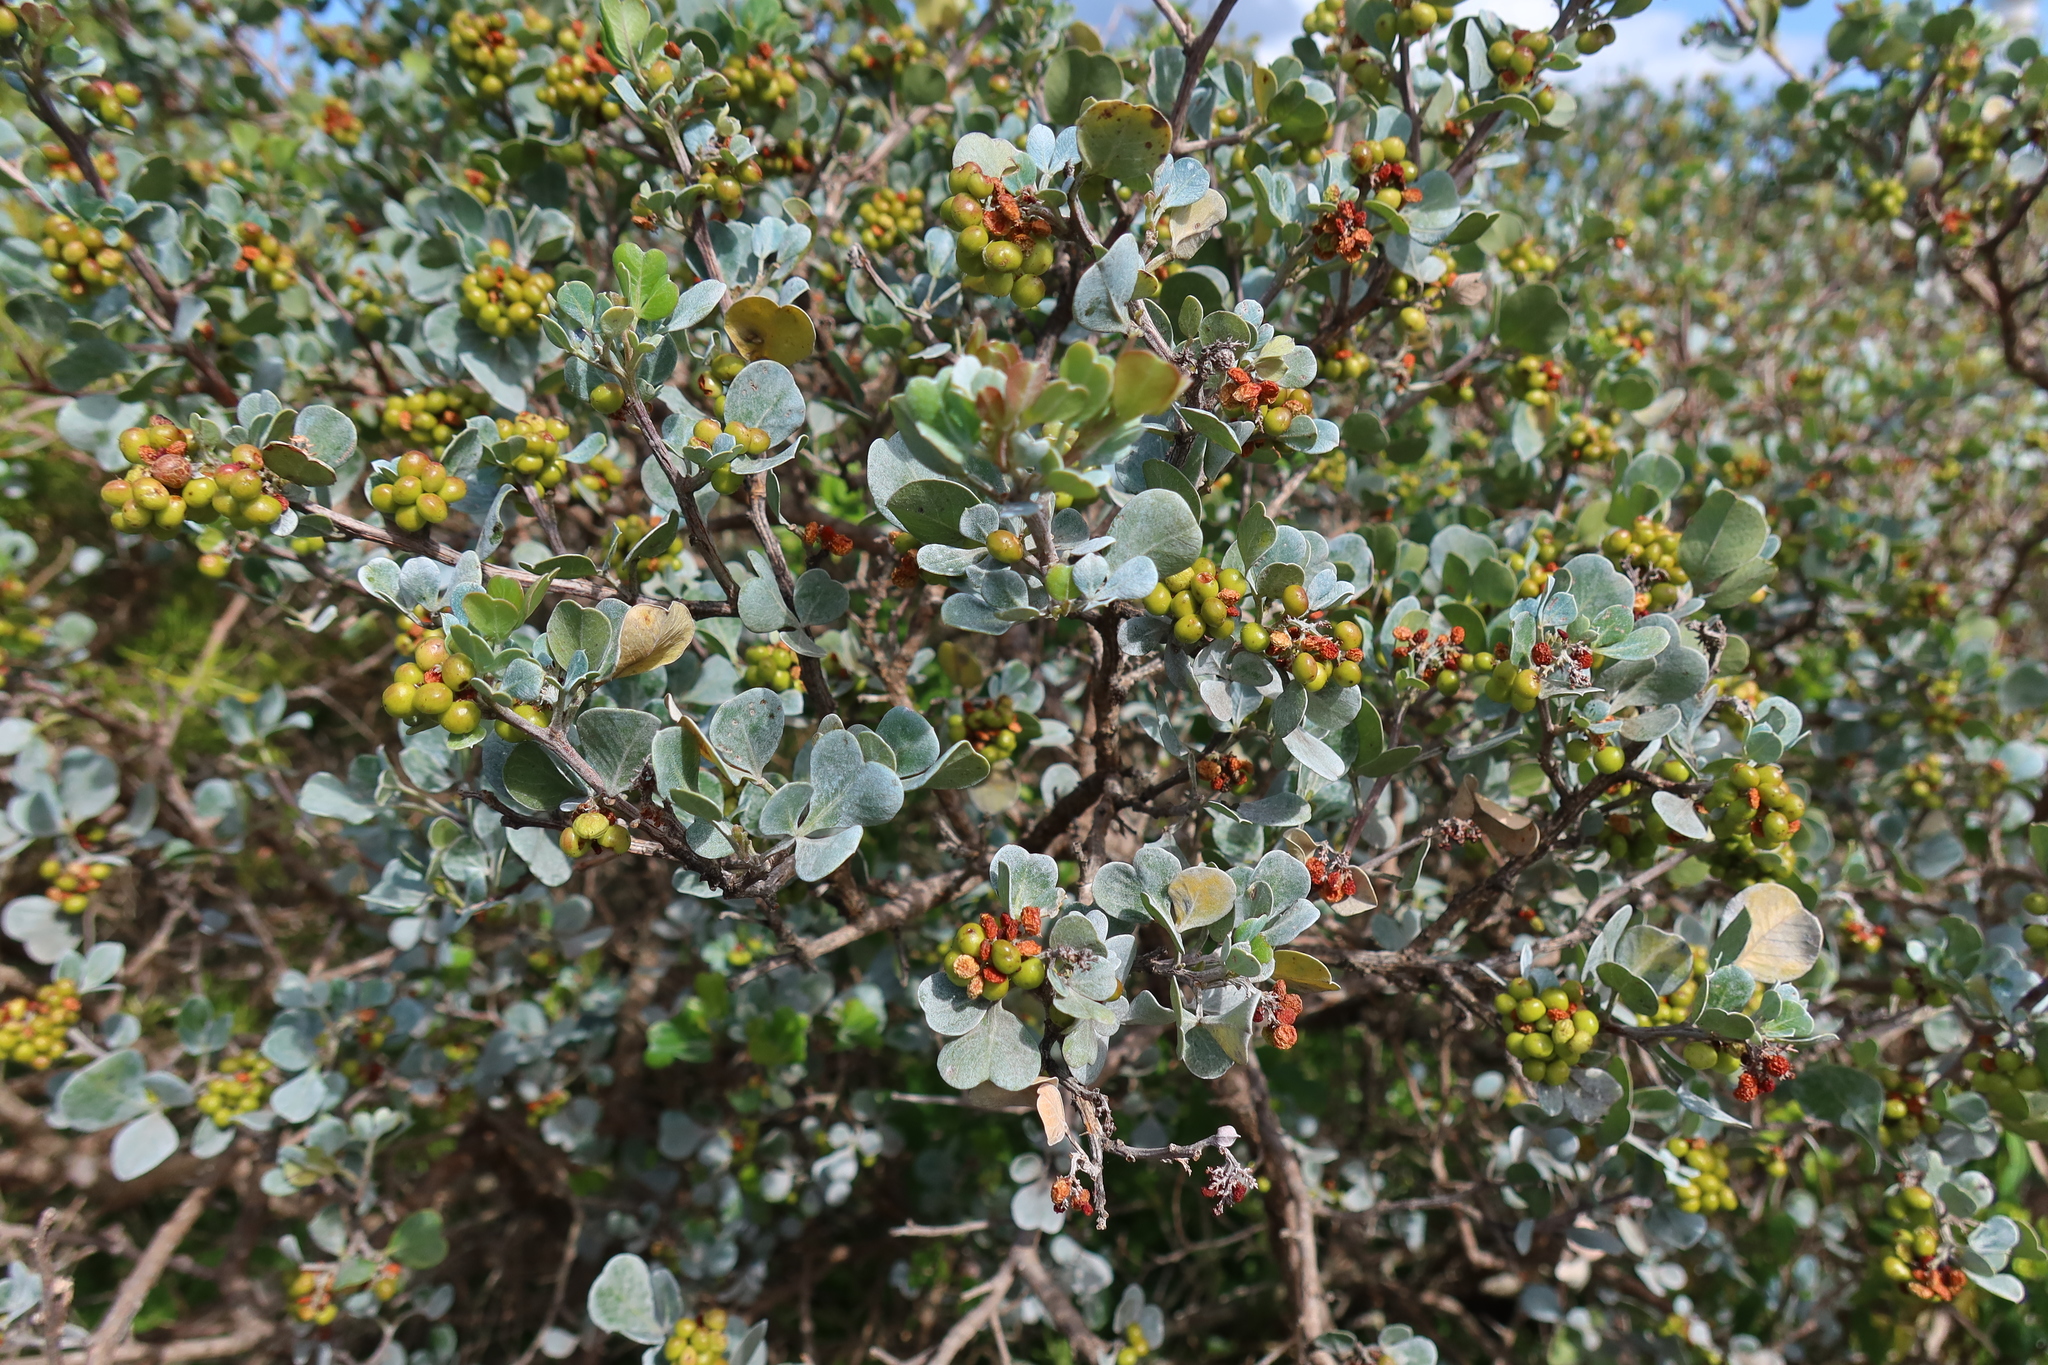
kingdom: Plantae
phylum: Tracheophyta
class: Magnoliopsida
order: Sapindales
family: Anacardiaceae
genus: Searsia
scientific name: Searsia glauca
